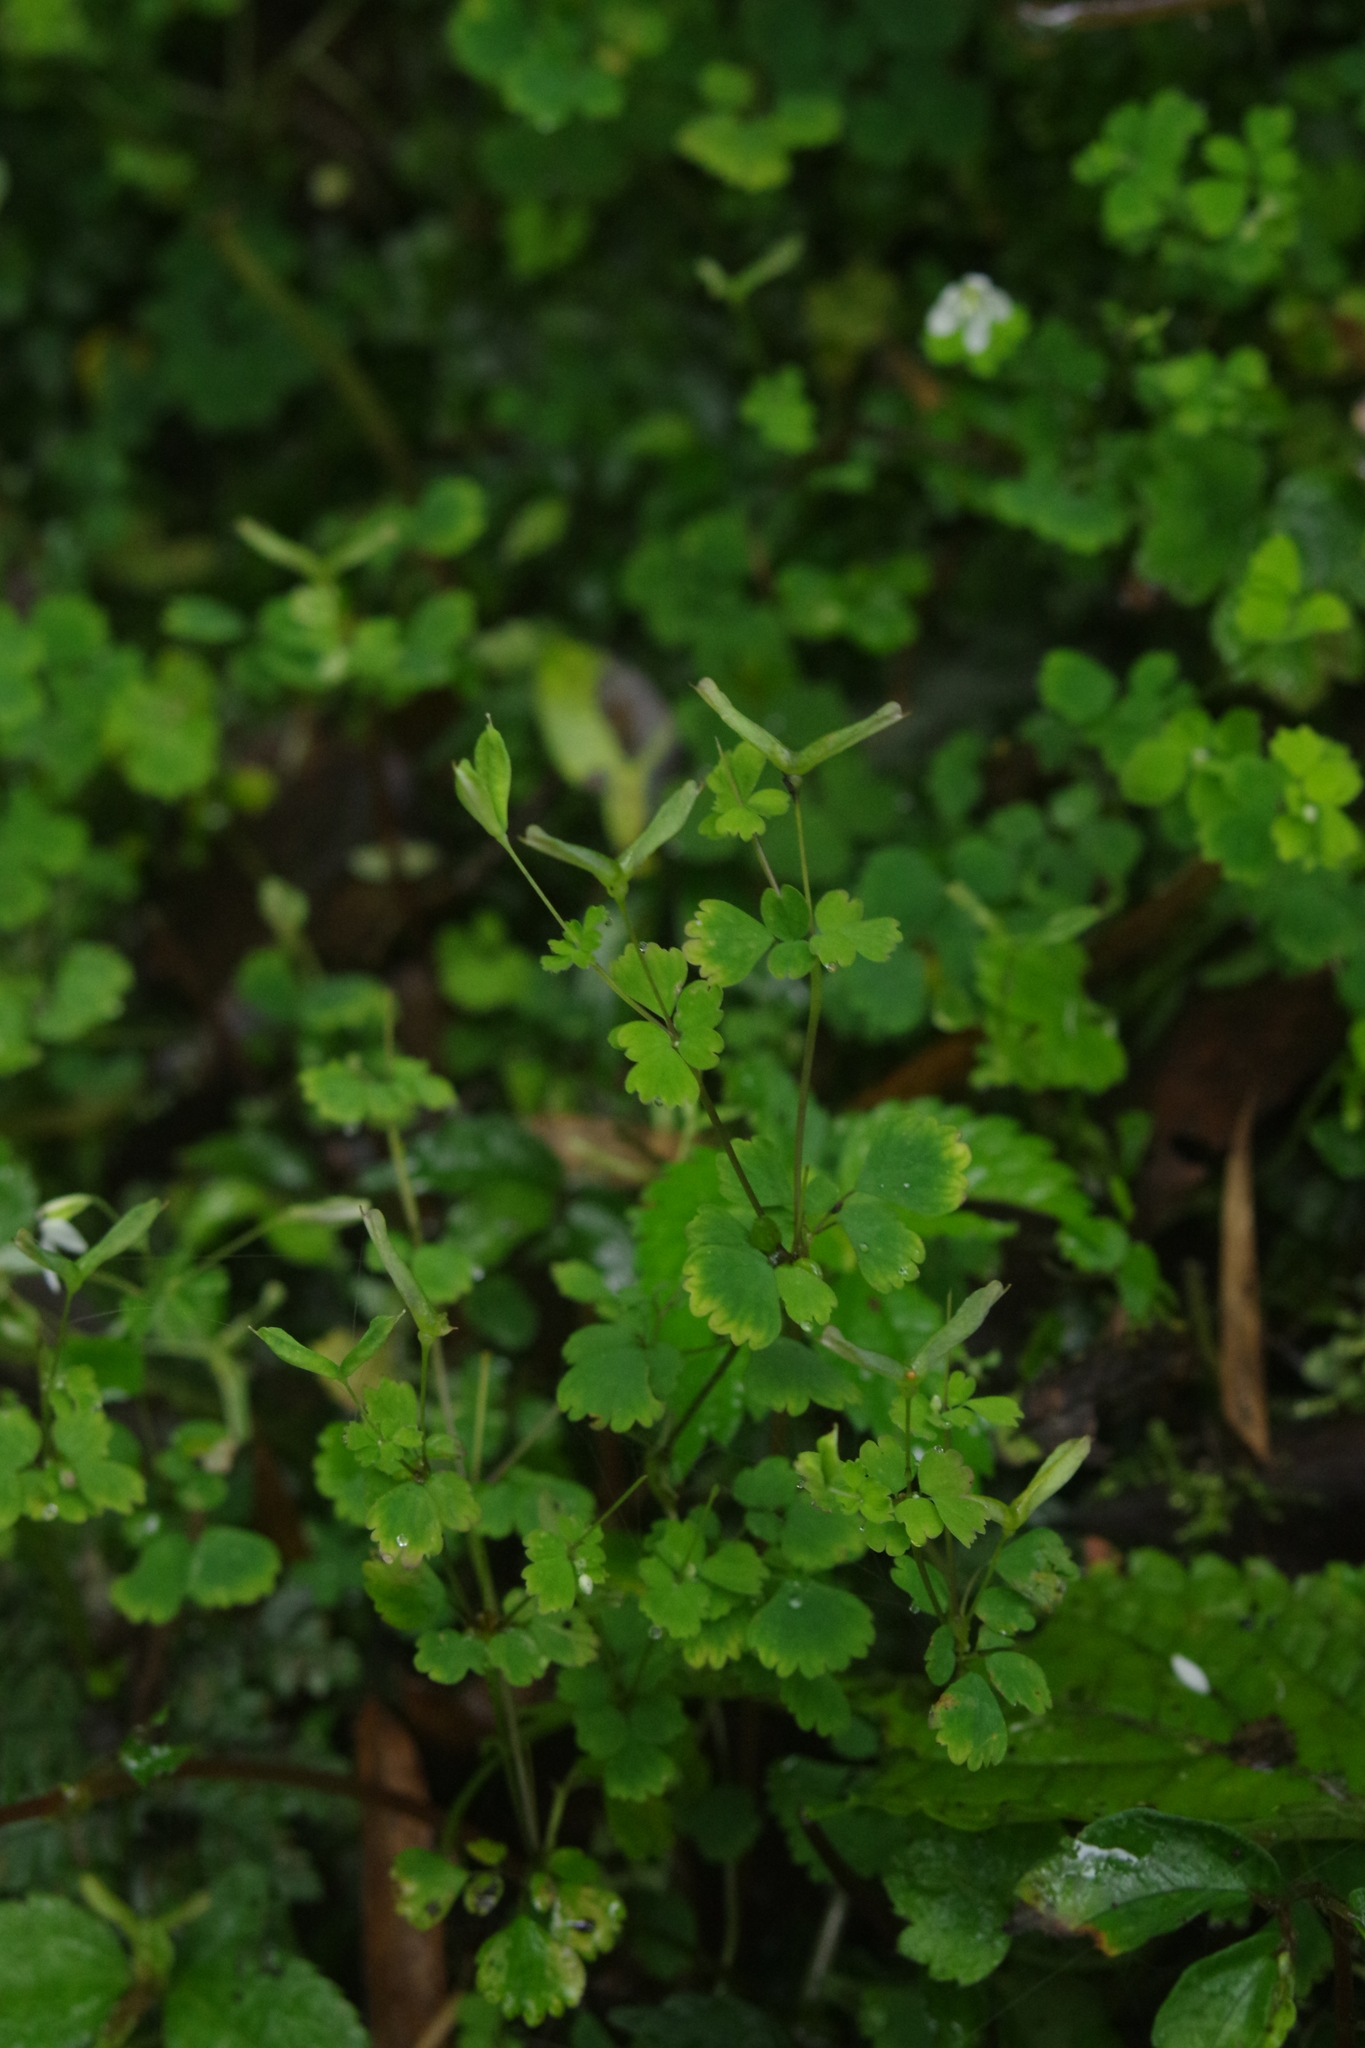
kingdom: Plantae
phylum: Tracheophyta
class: Magnoliopsida
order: Ranunculales
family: Ranunculaceae
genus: Dichocarpum
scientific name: Dichocarpum adiantifolium
